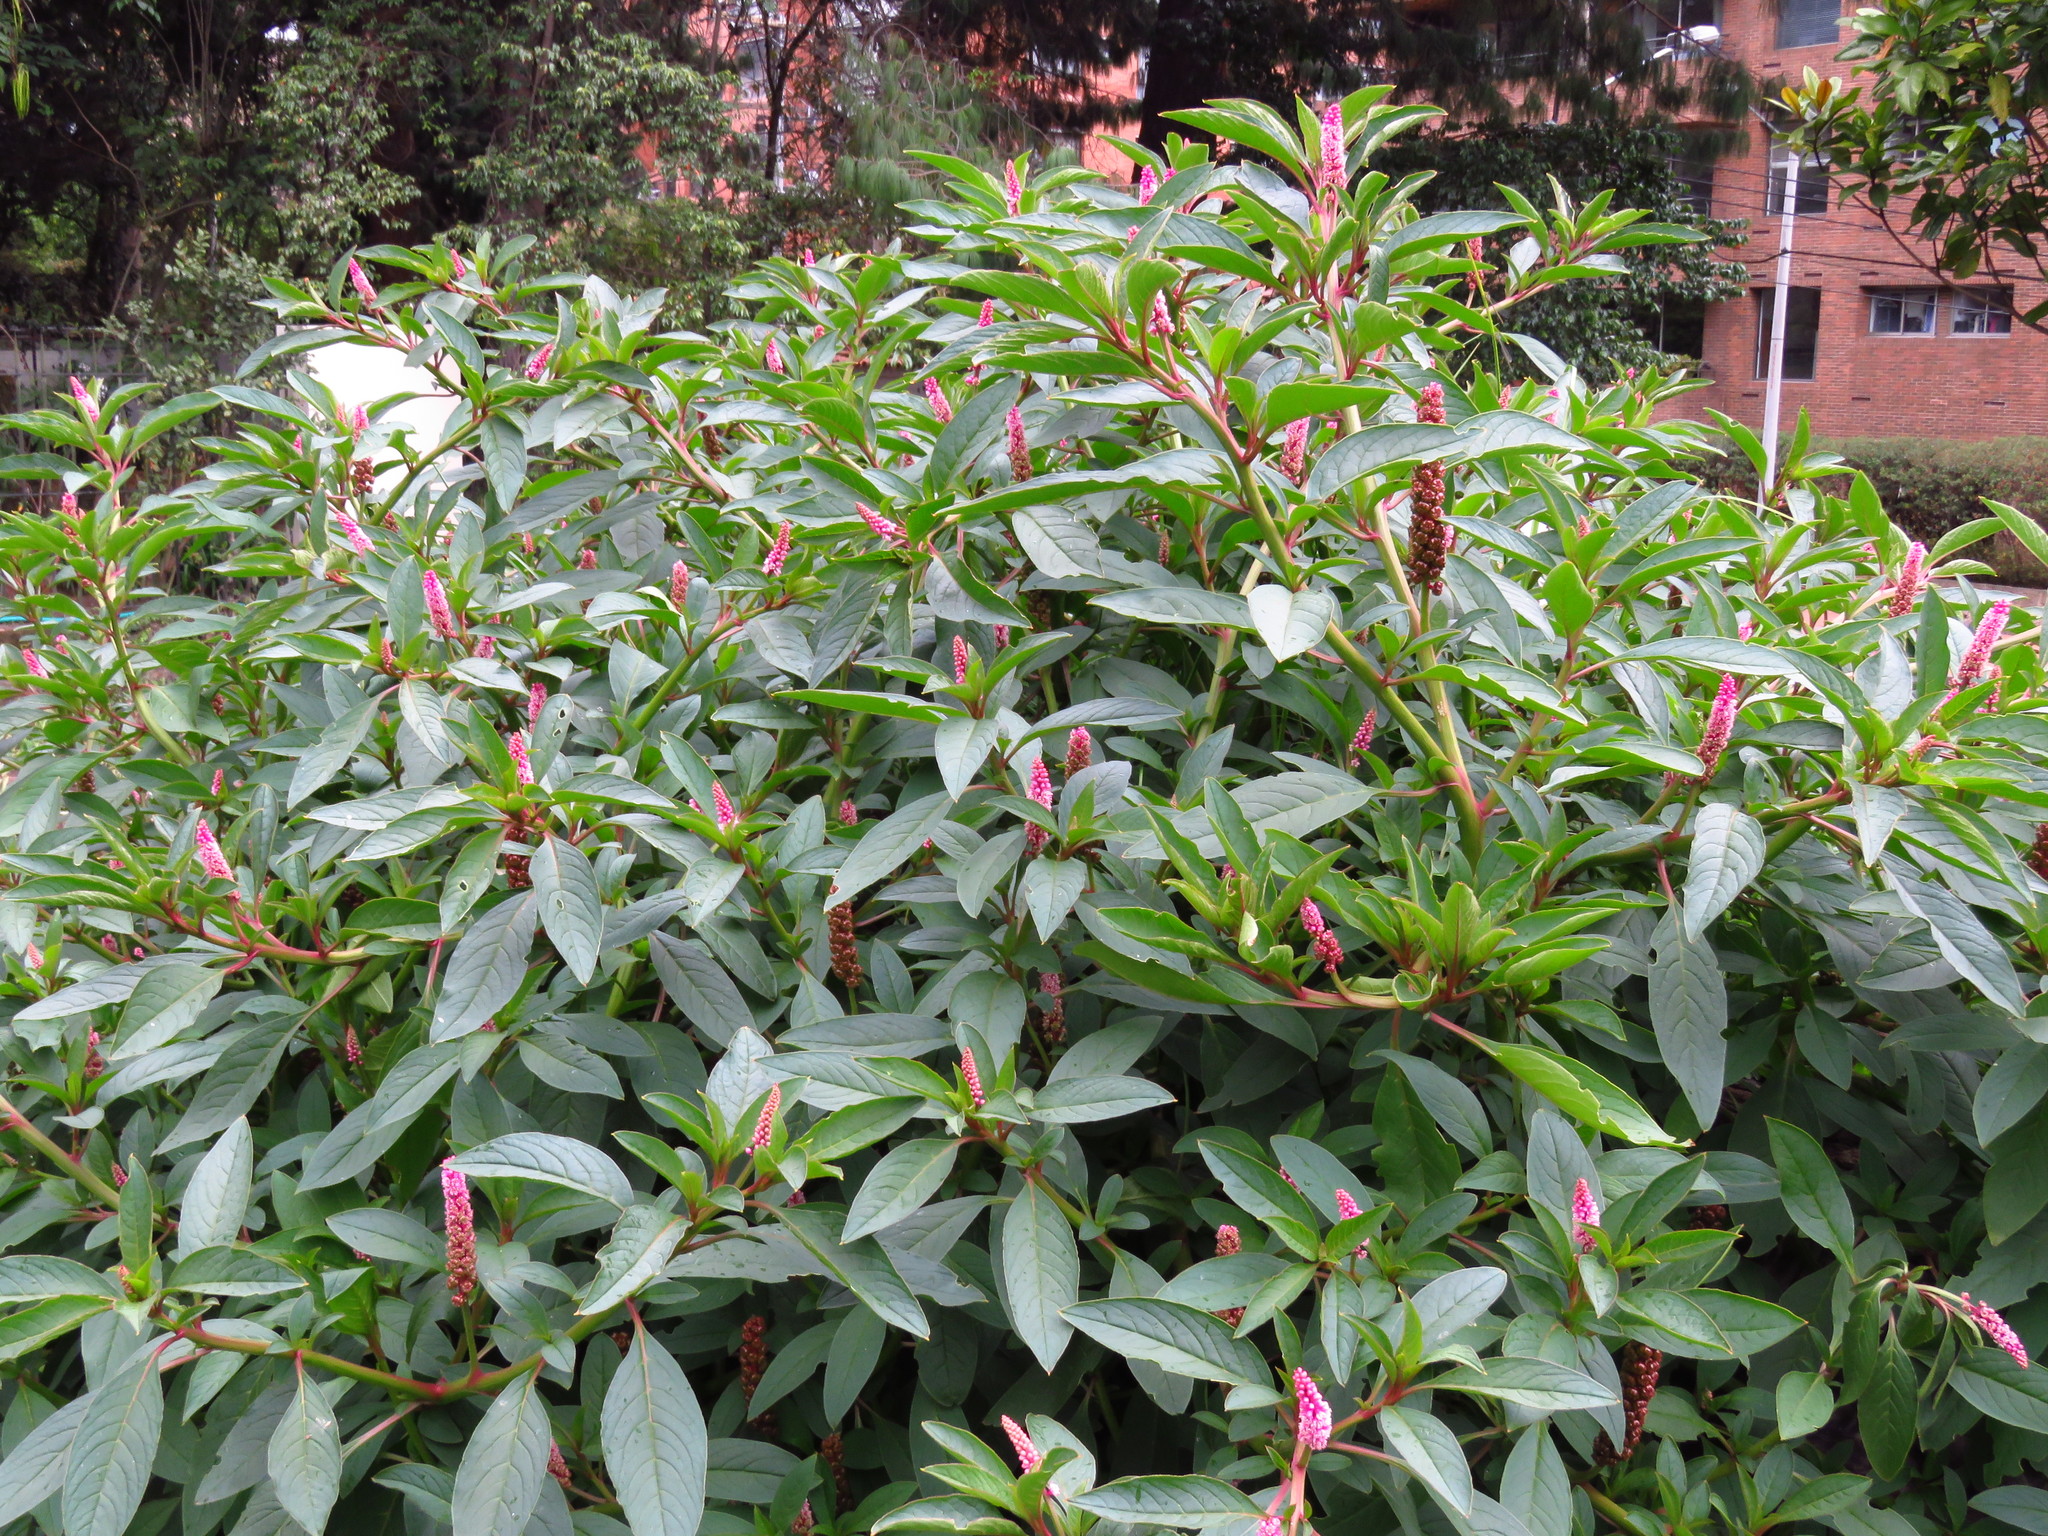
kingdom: Plantae
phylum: Tracheophyta
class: Magnoliopsida
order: Caryophyllales
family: Phytolaccaceae
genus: Phytolacca
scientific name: Phytolacca bogotensis
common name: Southern pokeweed
